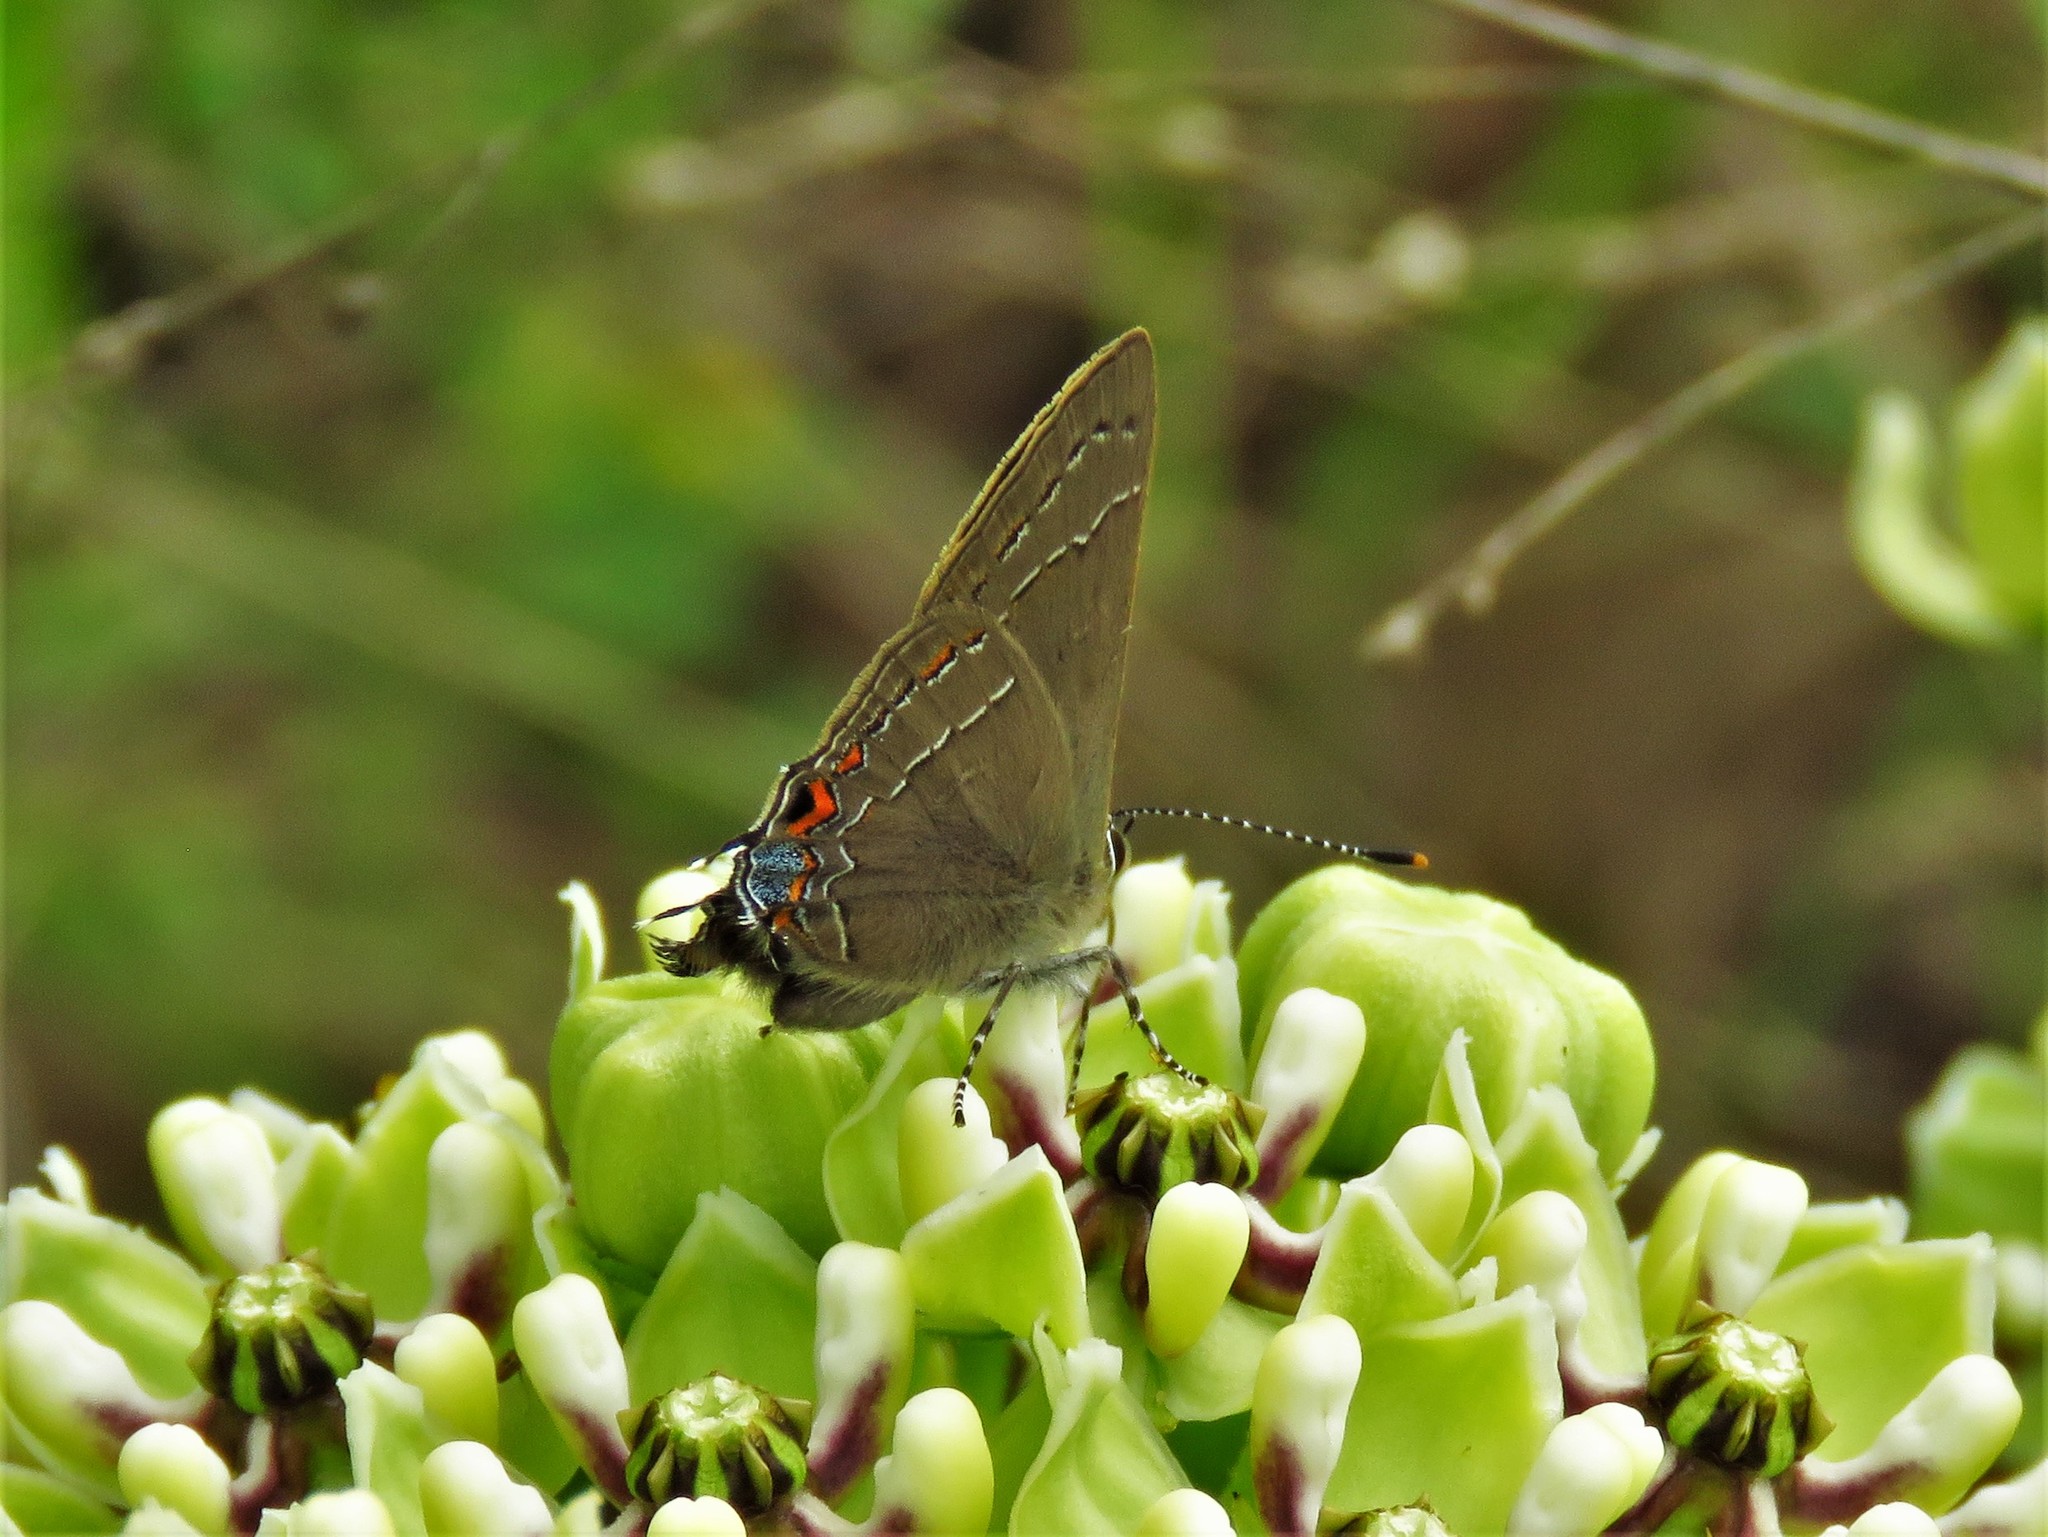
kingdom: Animalia
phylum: Arthropoda
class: Insecta
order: Lepidoptera
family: Lycaenidae
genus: Fixsenia
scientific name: Fixsenia favonius
